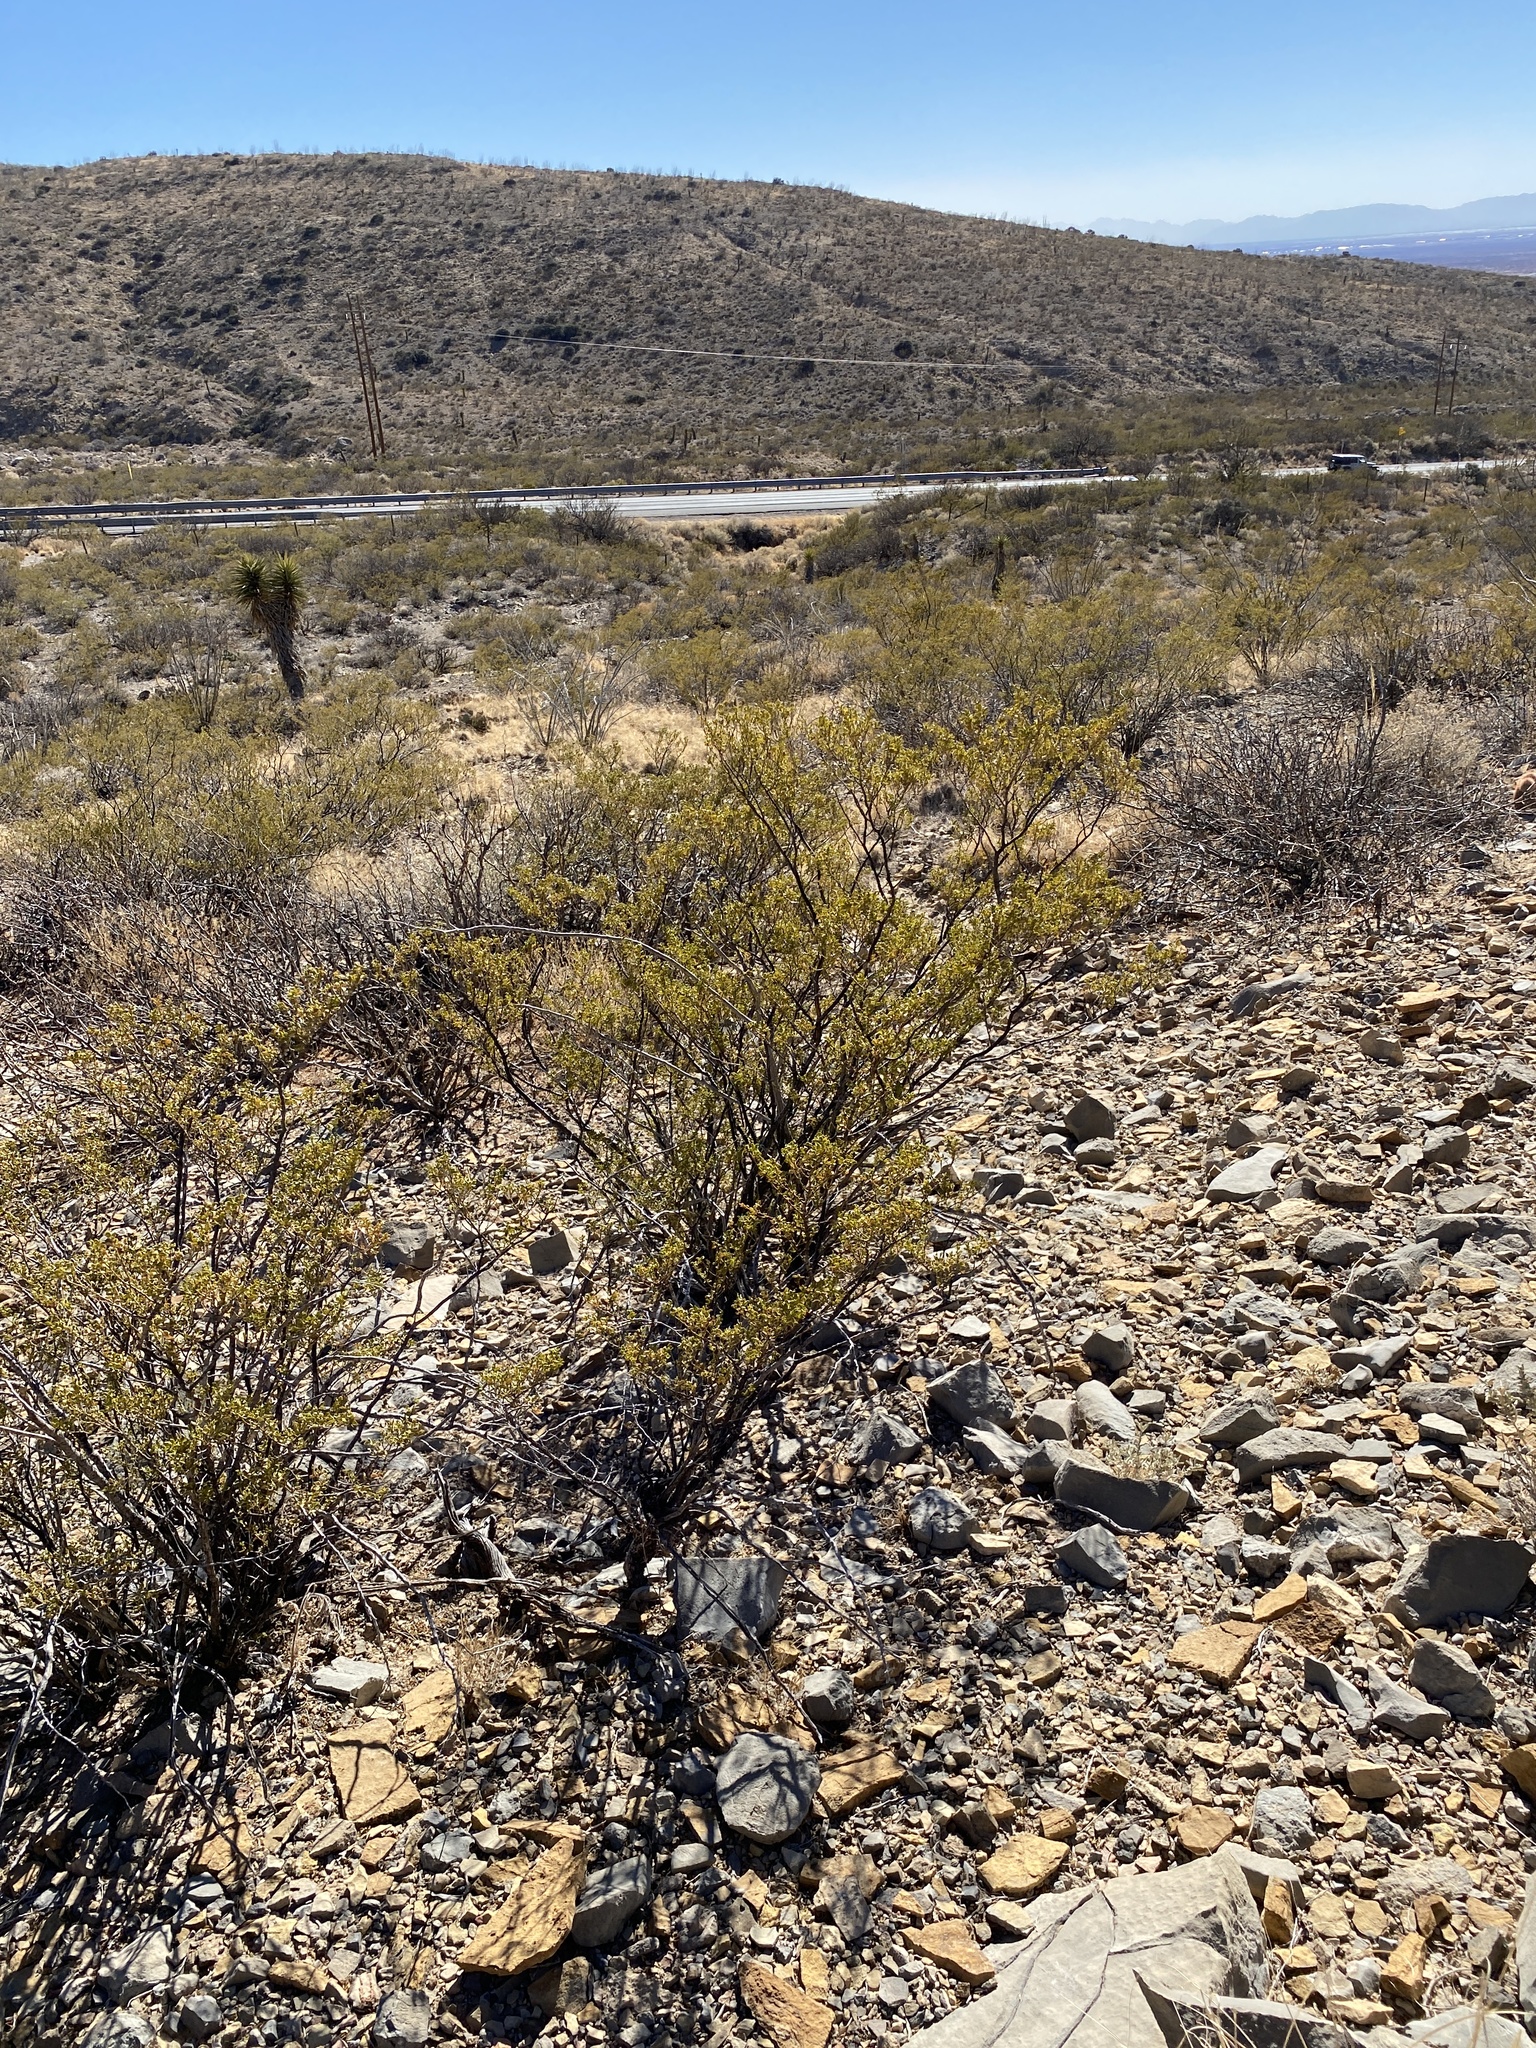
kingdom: Plantae
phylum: Tracheophyta
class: Magnoliopsida
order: Zygophyllales
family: Zygophyllaceae
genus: Larrea
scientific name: Larrea tridentata
